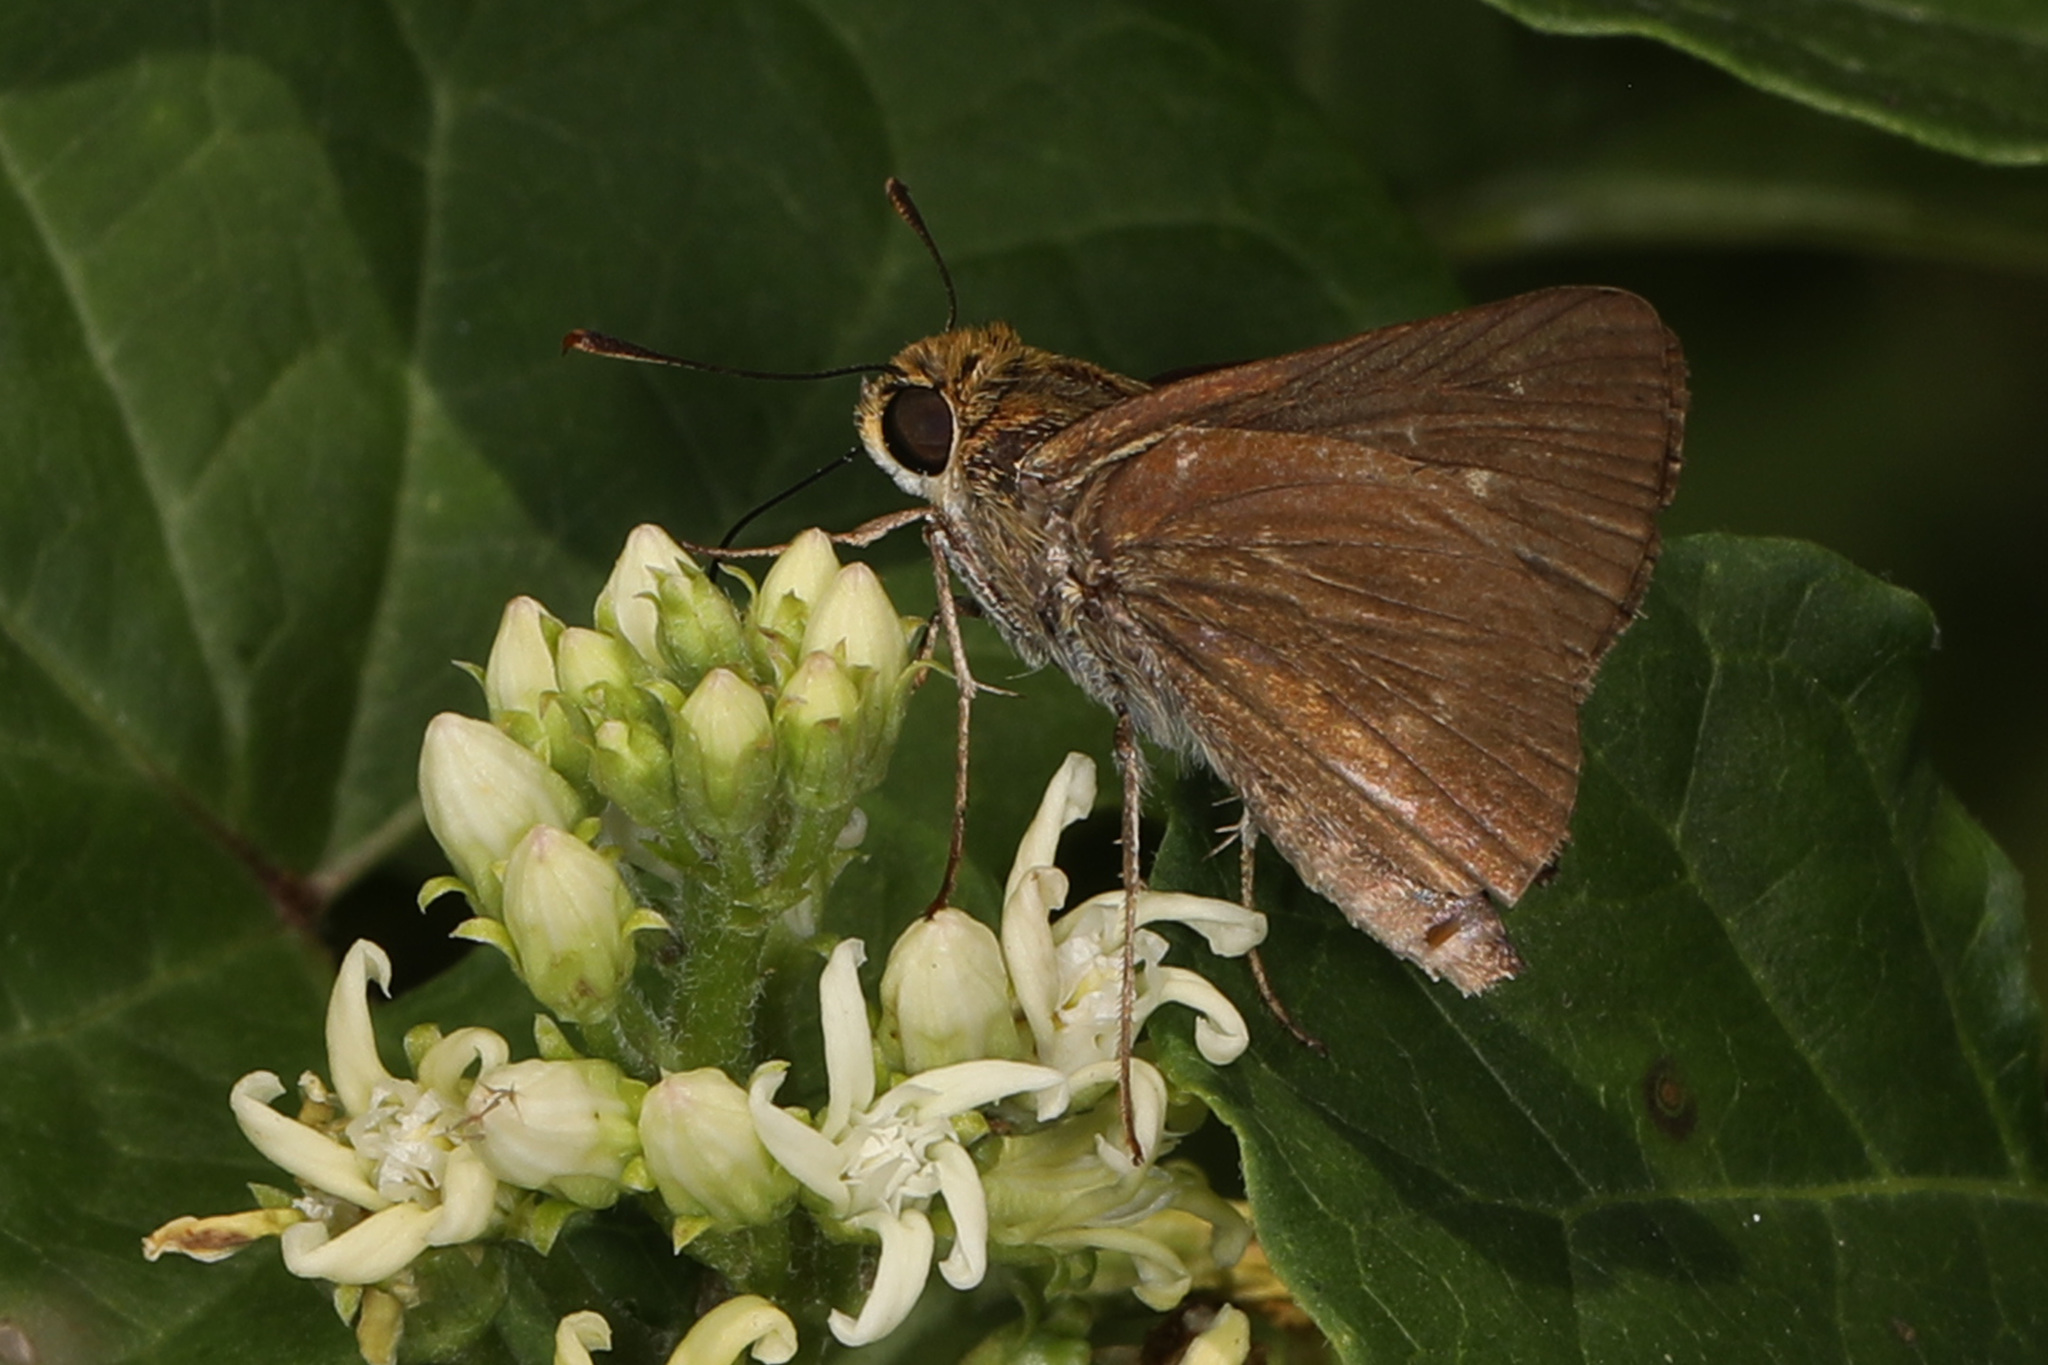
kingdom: Animalia
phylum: Arthropoda
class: Insecta
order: Lepidoptera
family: Hesperiidae
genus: Euphyes
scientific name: Euphyes vestris
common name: Dun skipper
